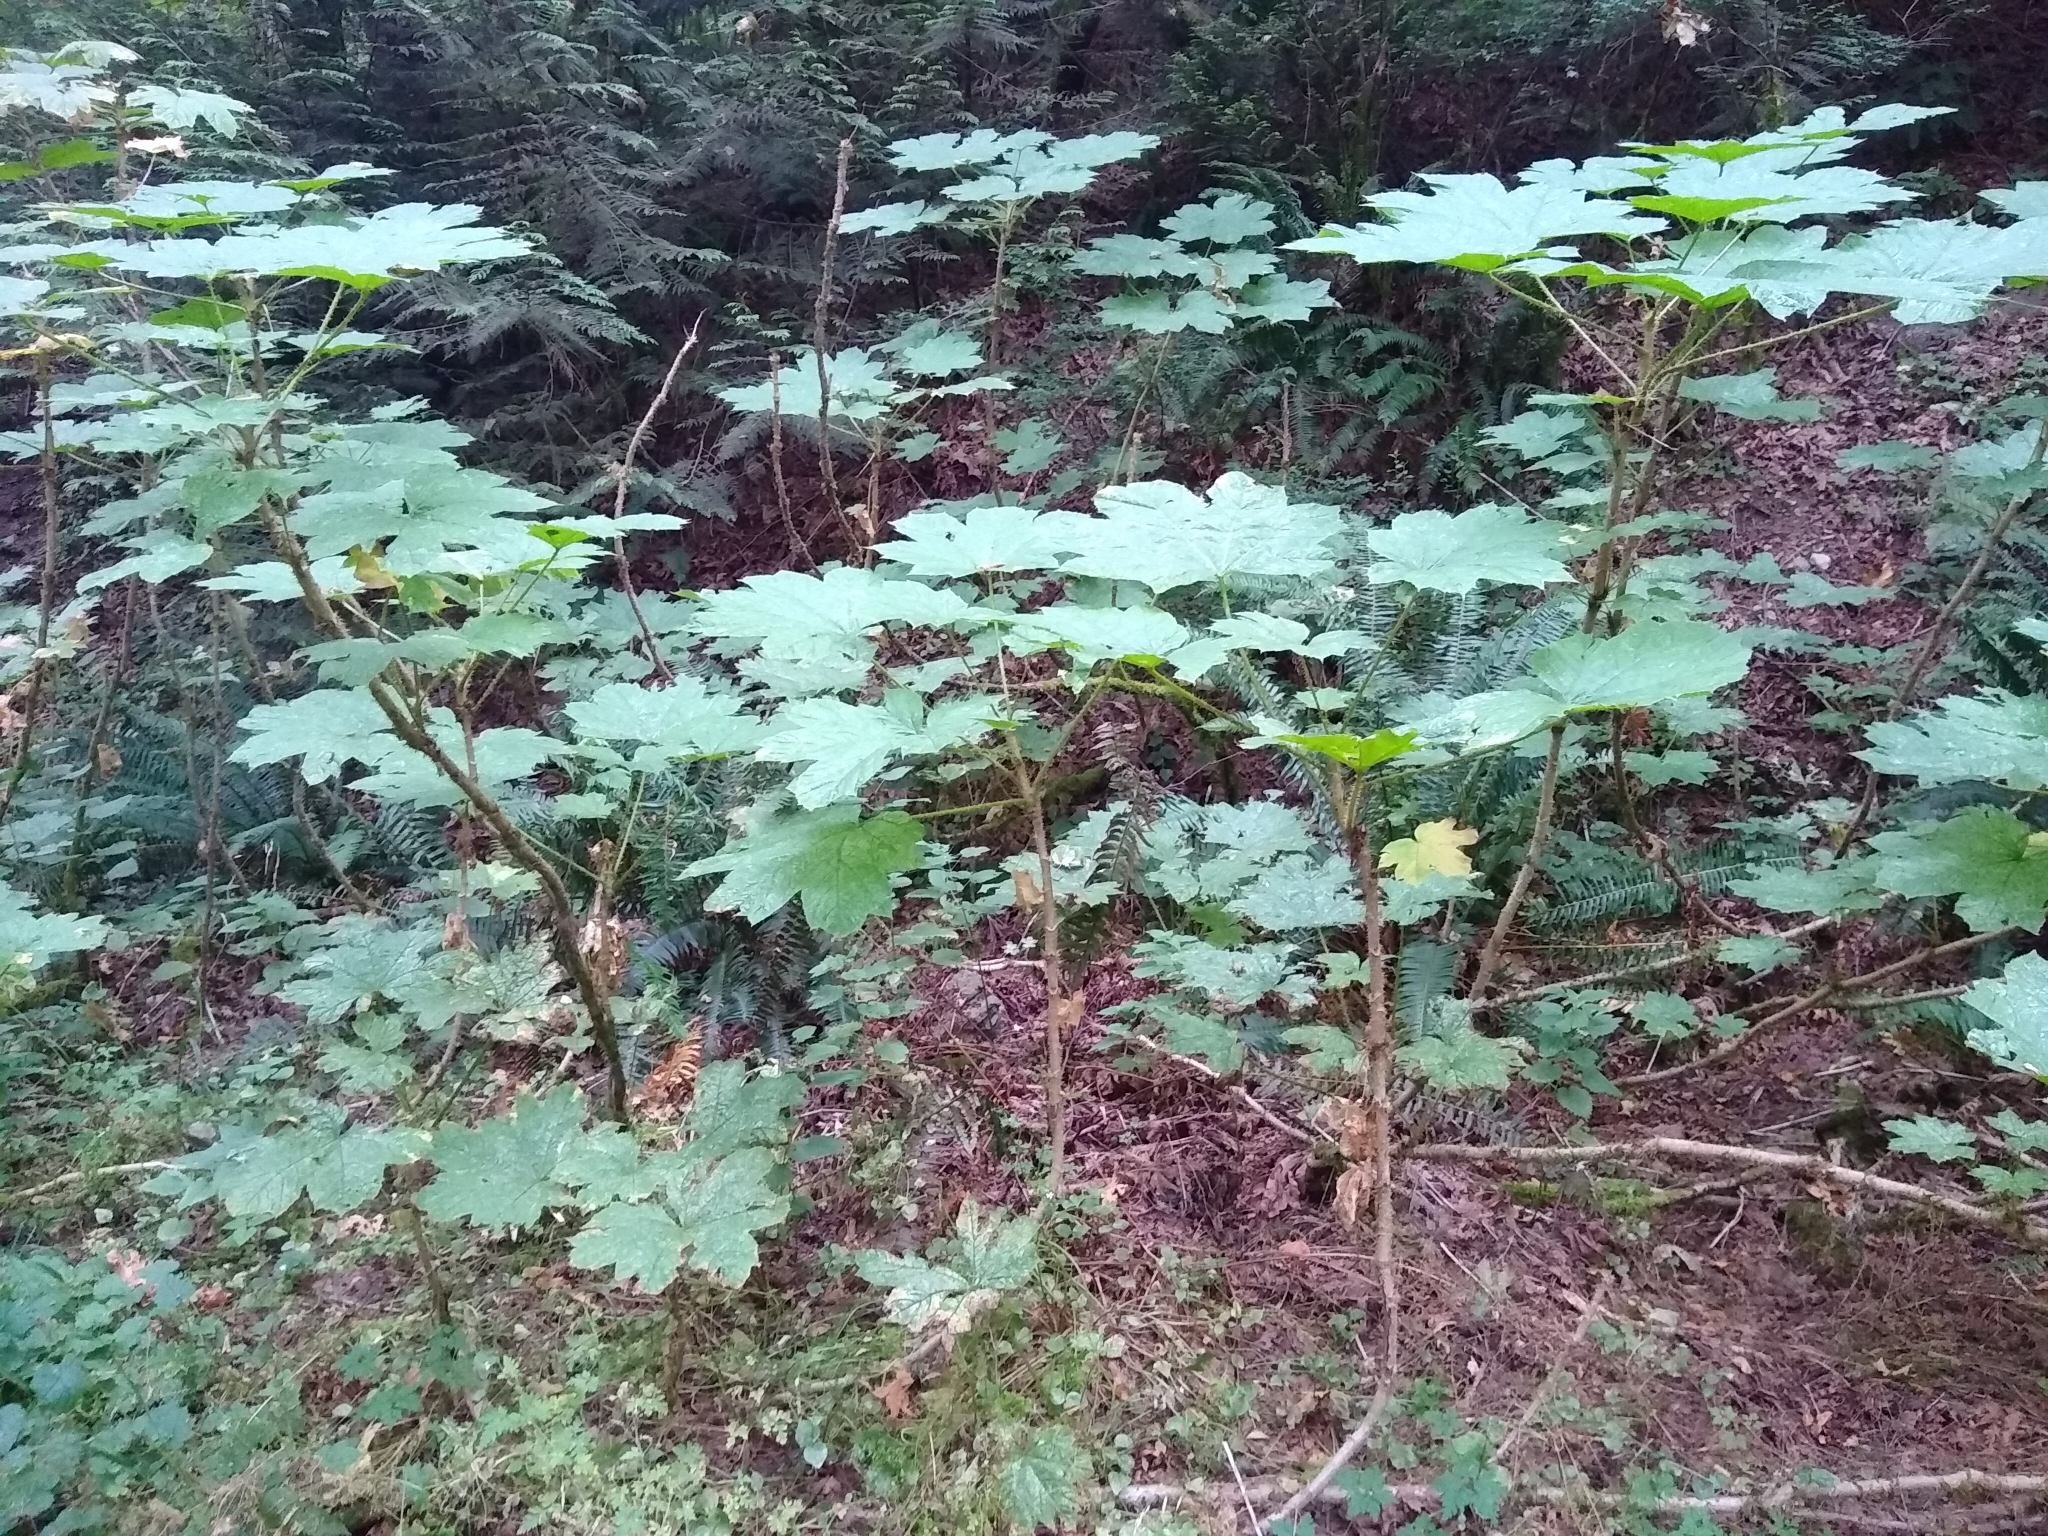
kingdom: Plantae
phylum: Tracheophyta
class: Magnoliopsida
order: Apiales
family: Araliaceae
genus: Oplopanax
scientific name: Oplopanax horridus
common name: Devil's walking-stick
